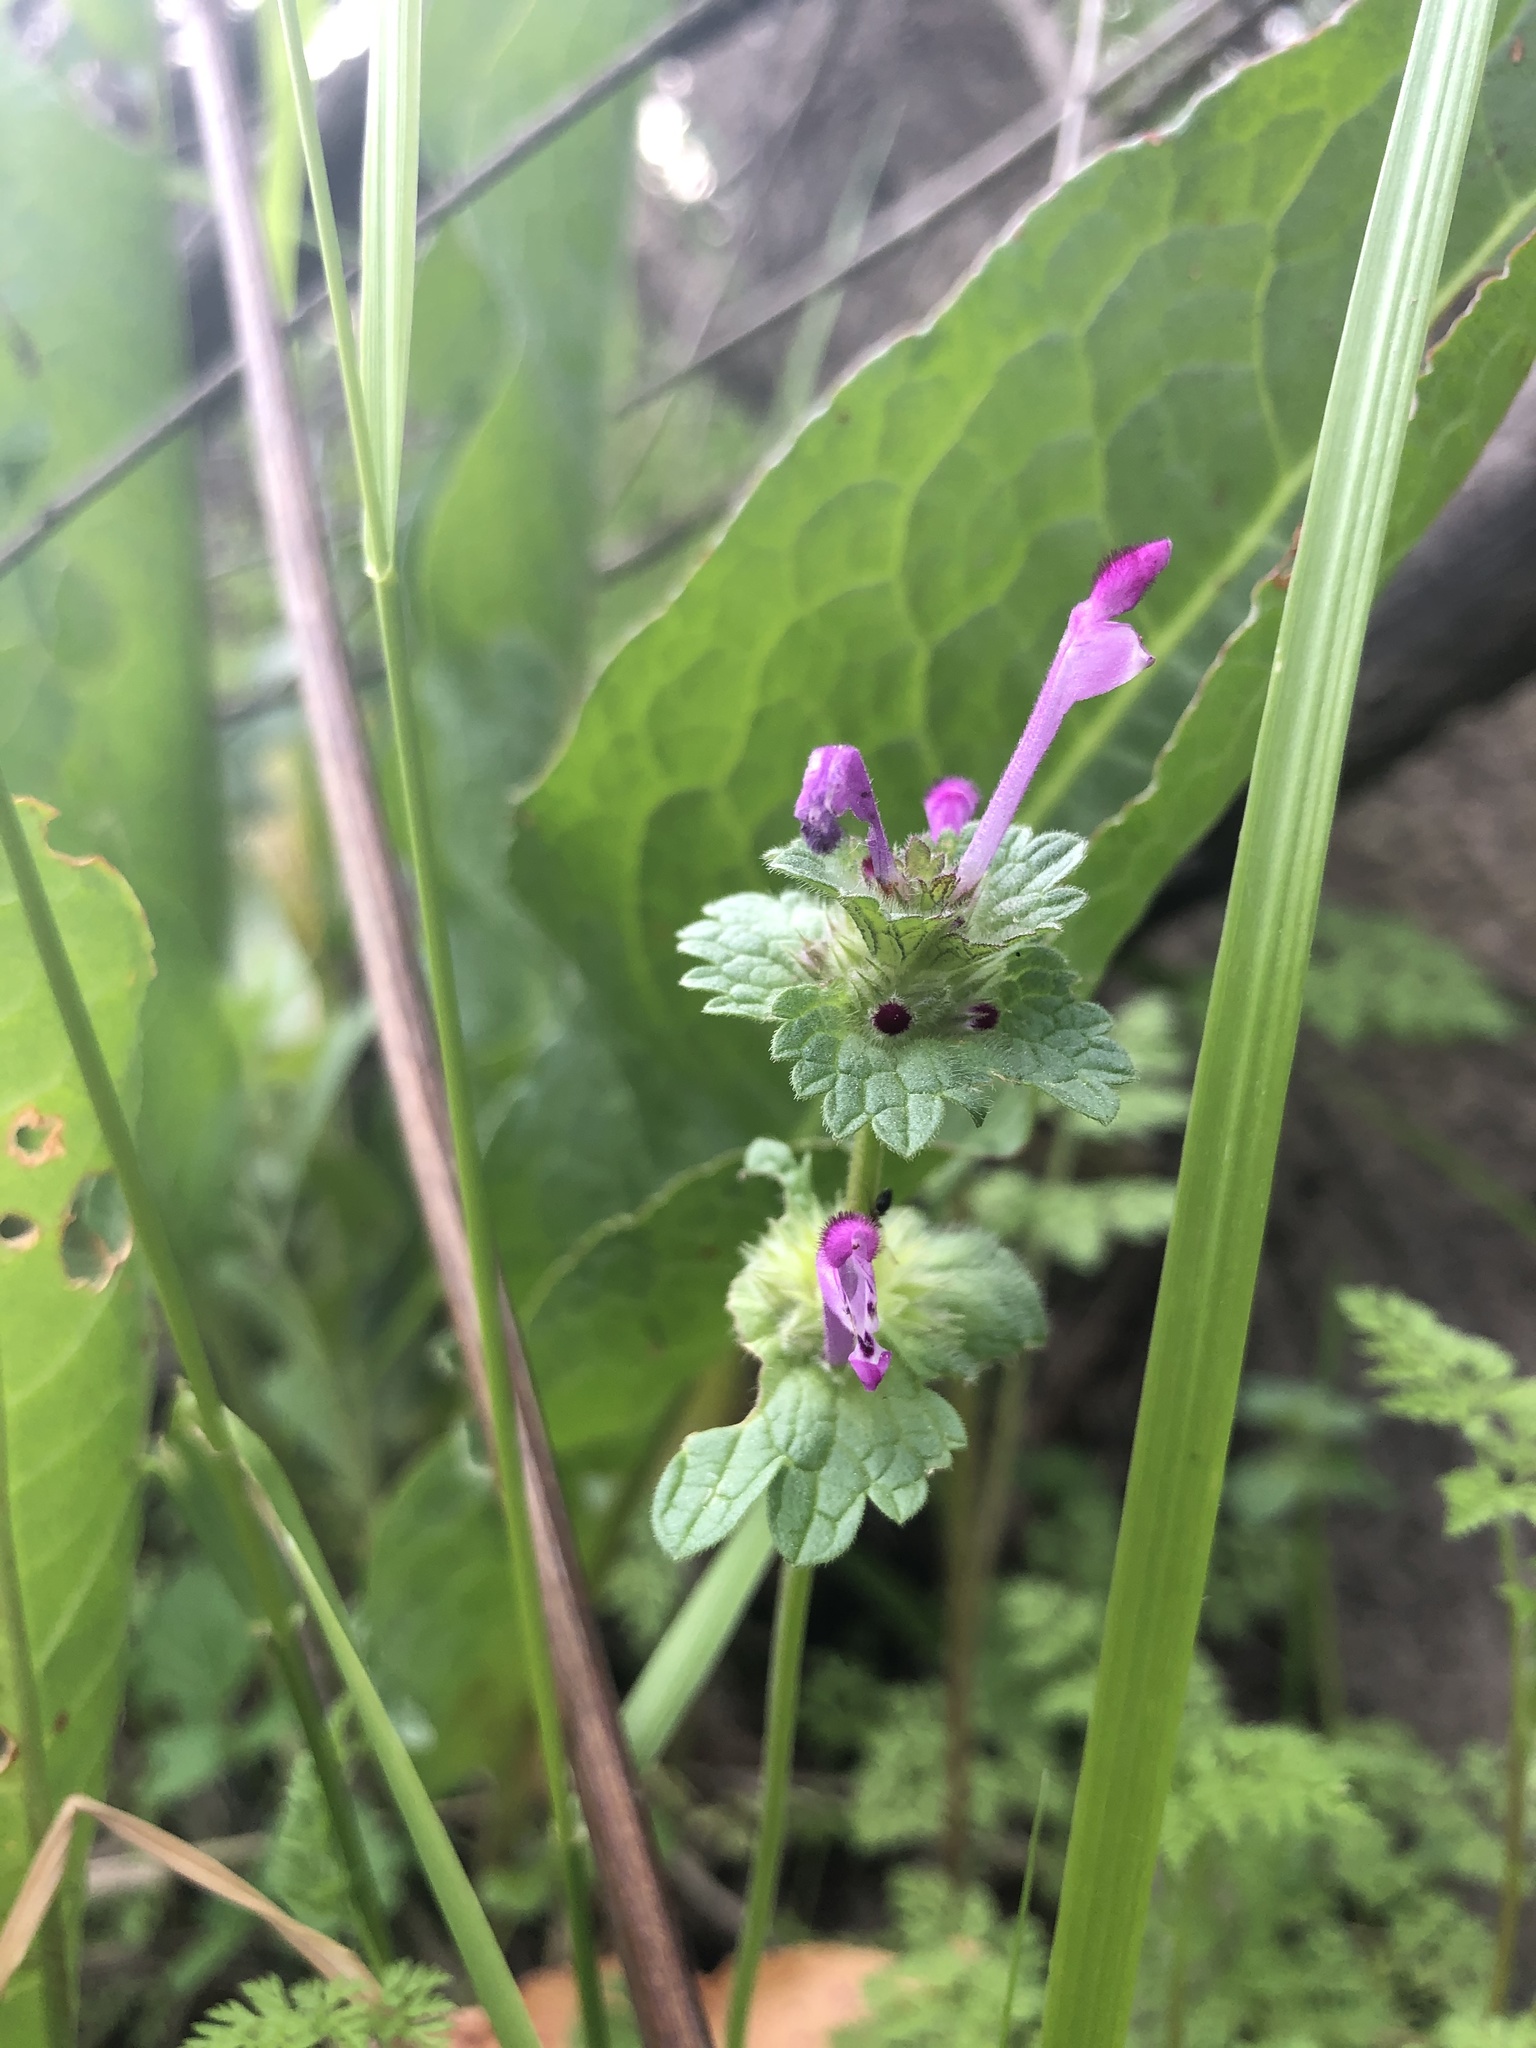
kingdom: Plantae
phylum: Tracheophyta
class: Magnoliopsida
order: Lamiales
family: Lamiaceae
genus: Lamium
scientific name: Lamium amplexicaule
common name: Henbit dead-nettle
